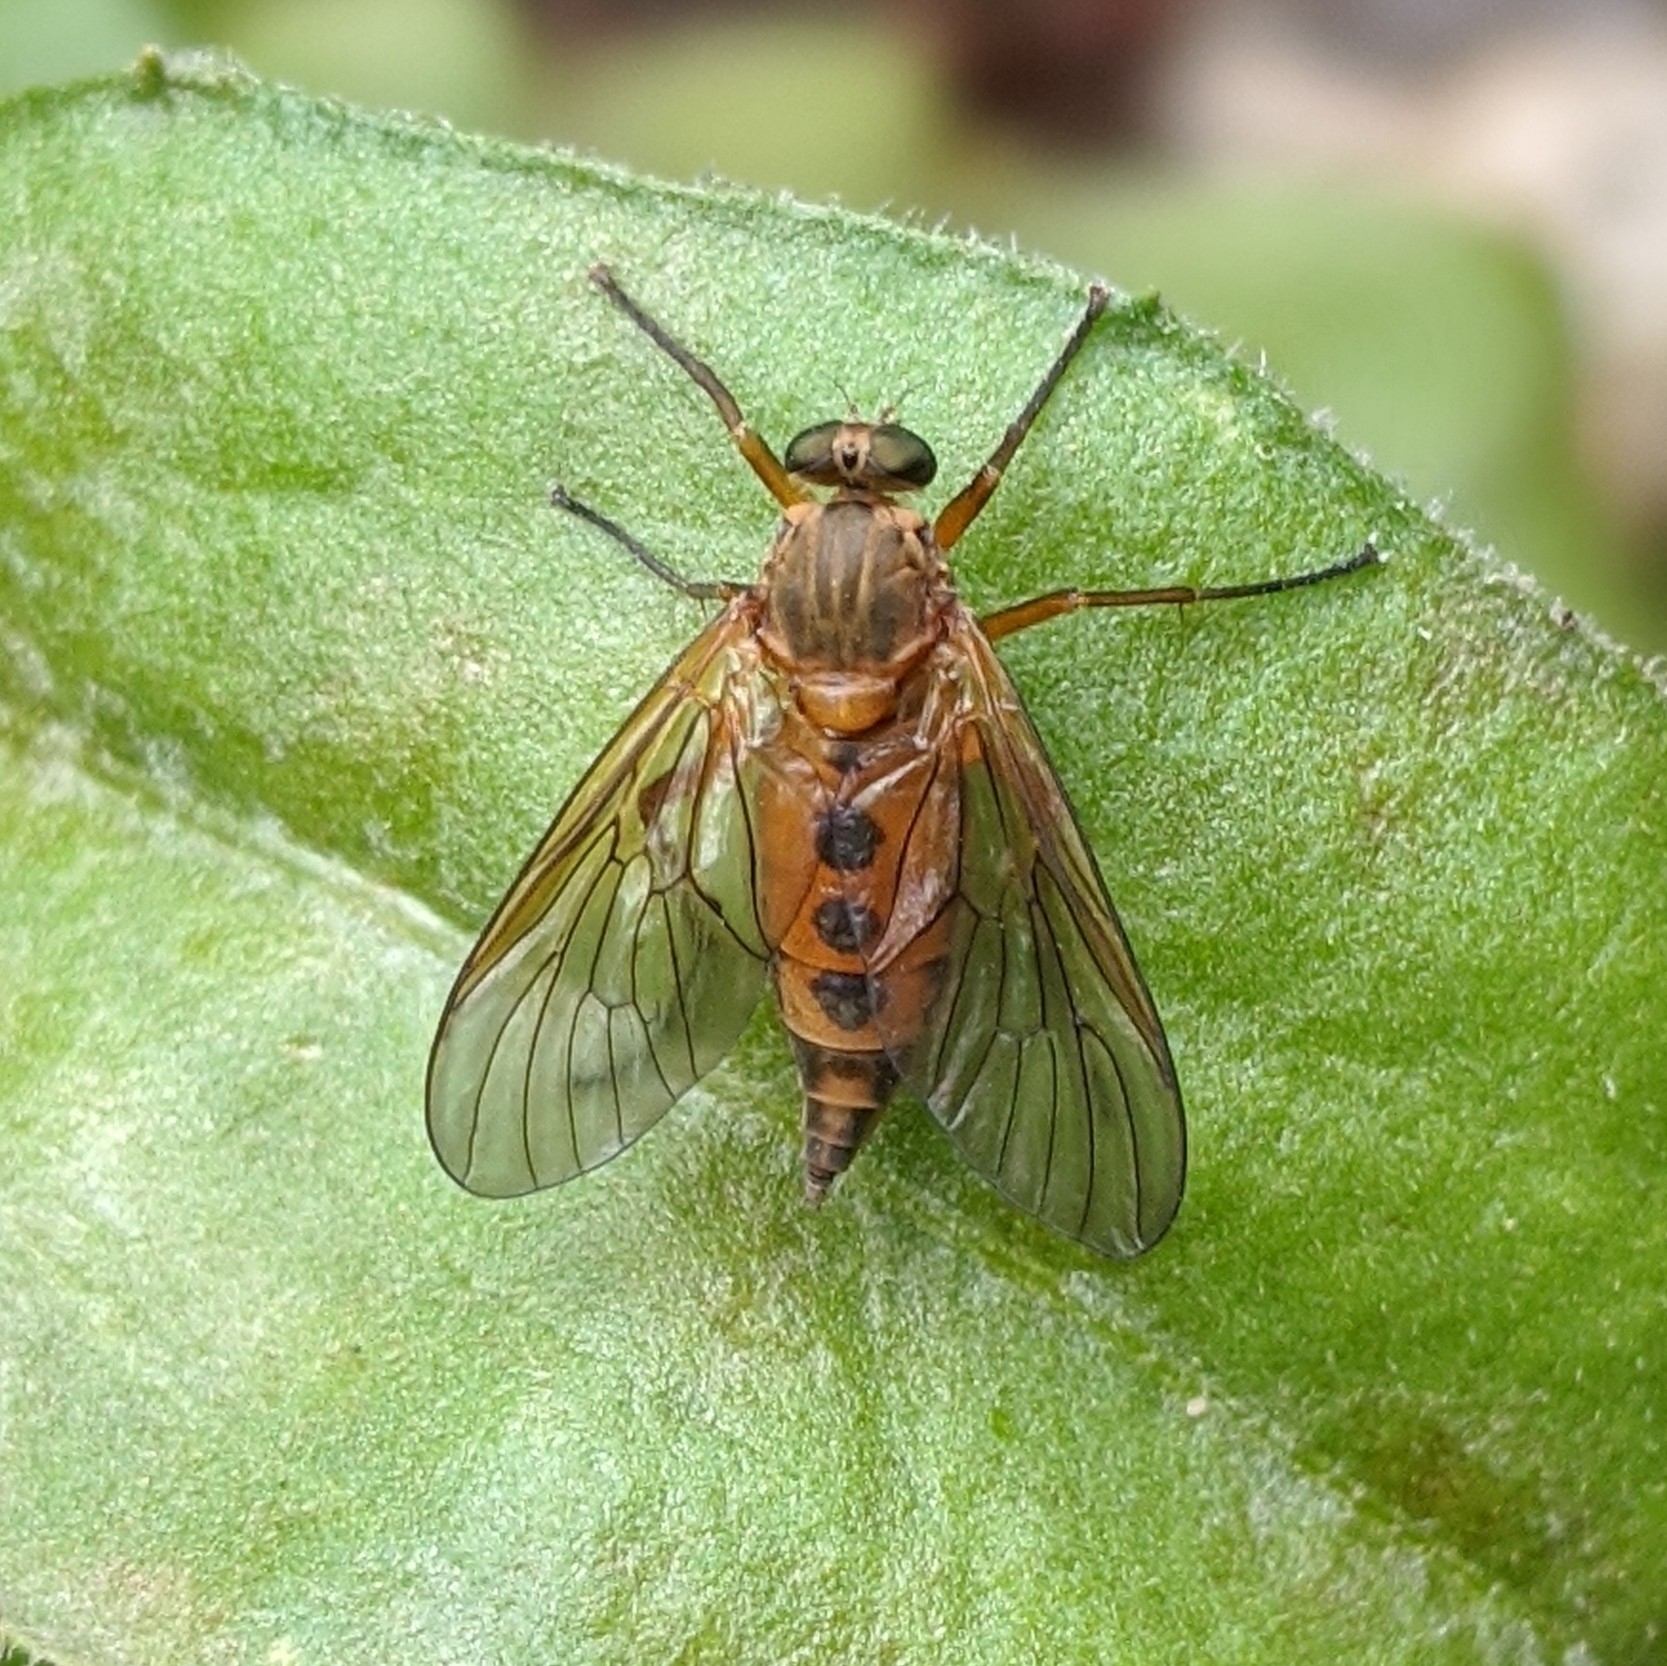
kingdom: Animalia
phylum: Arthropoda
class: Insecta
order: Diptera
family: Rhagionidae
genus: Rhagio
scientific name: Rhagio tringaria
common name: Marsh snipefly
